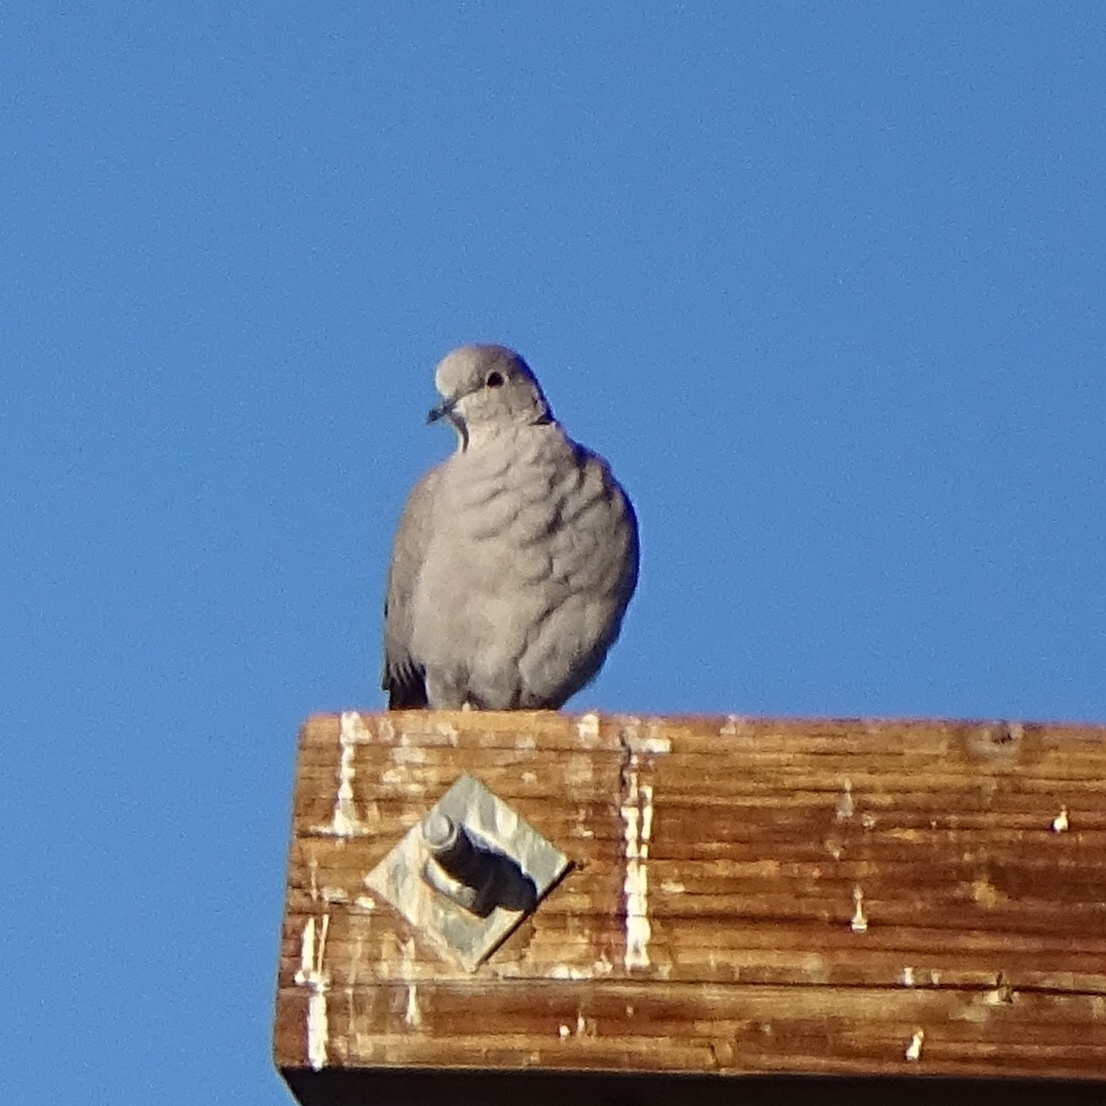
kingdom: Animalia
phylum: Chordata
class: Aves
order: Columbiformes
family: Columbidae
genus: Streptopelia
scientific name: Streptopelia decaocto
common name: Eurasian collared dove
